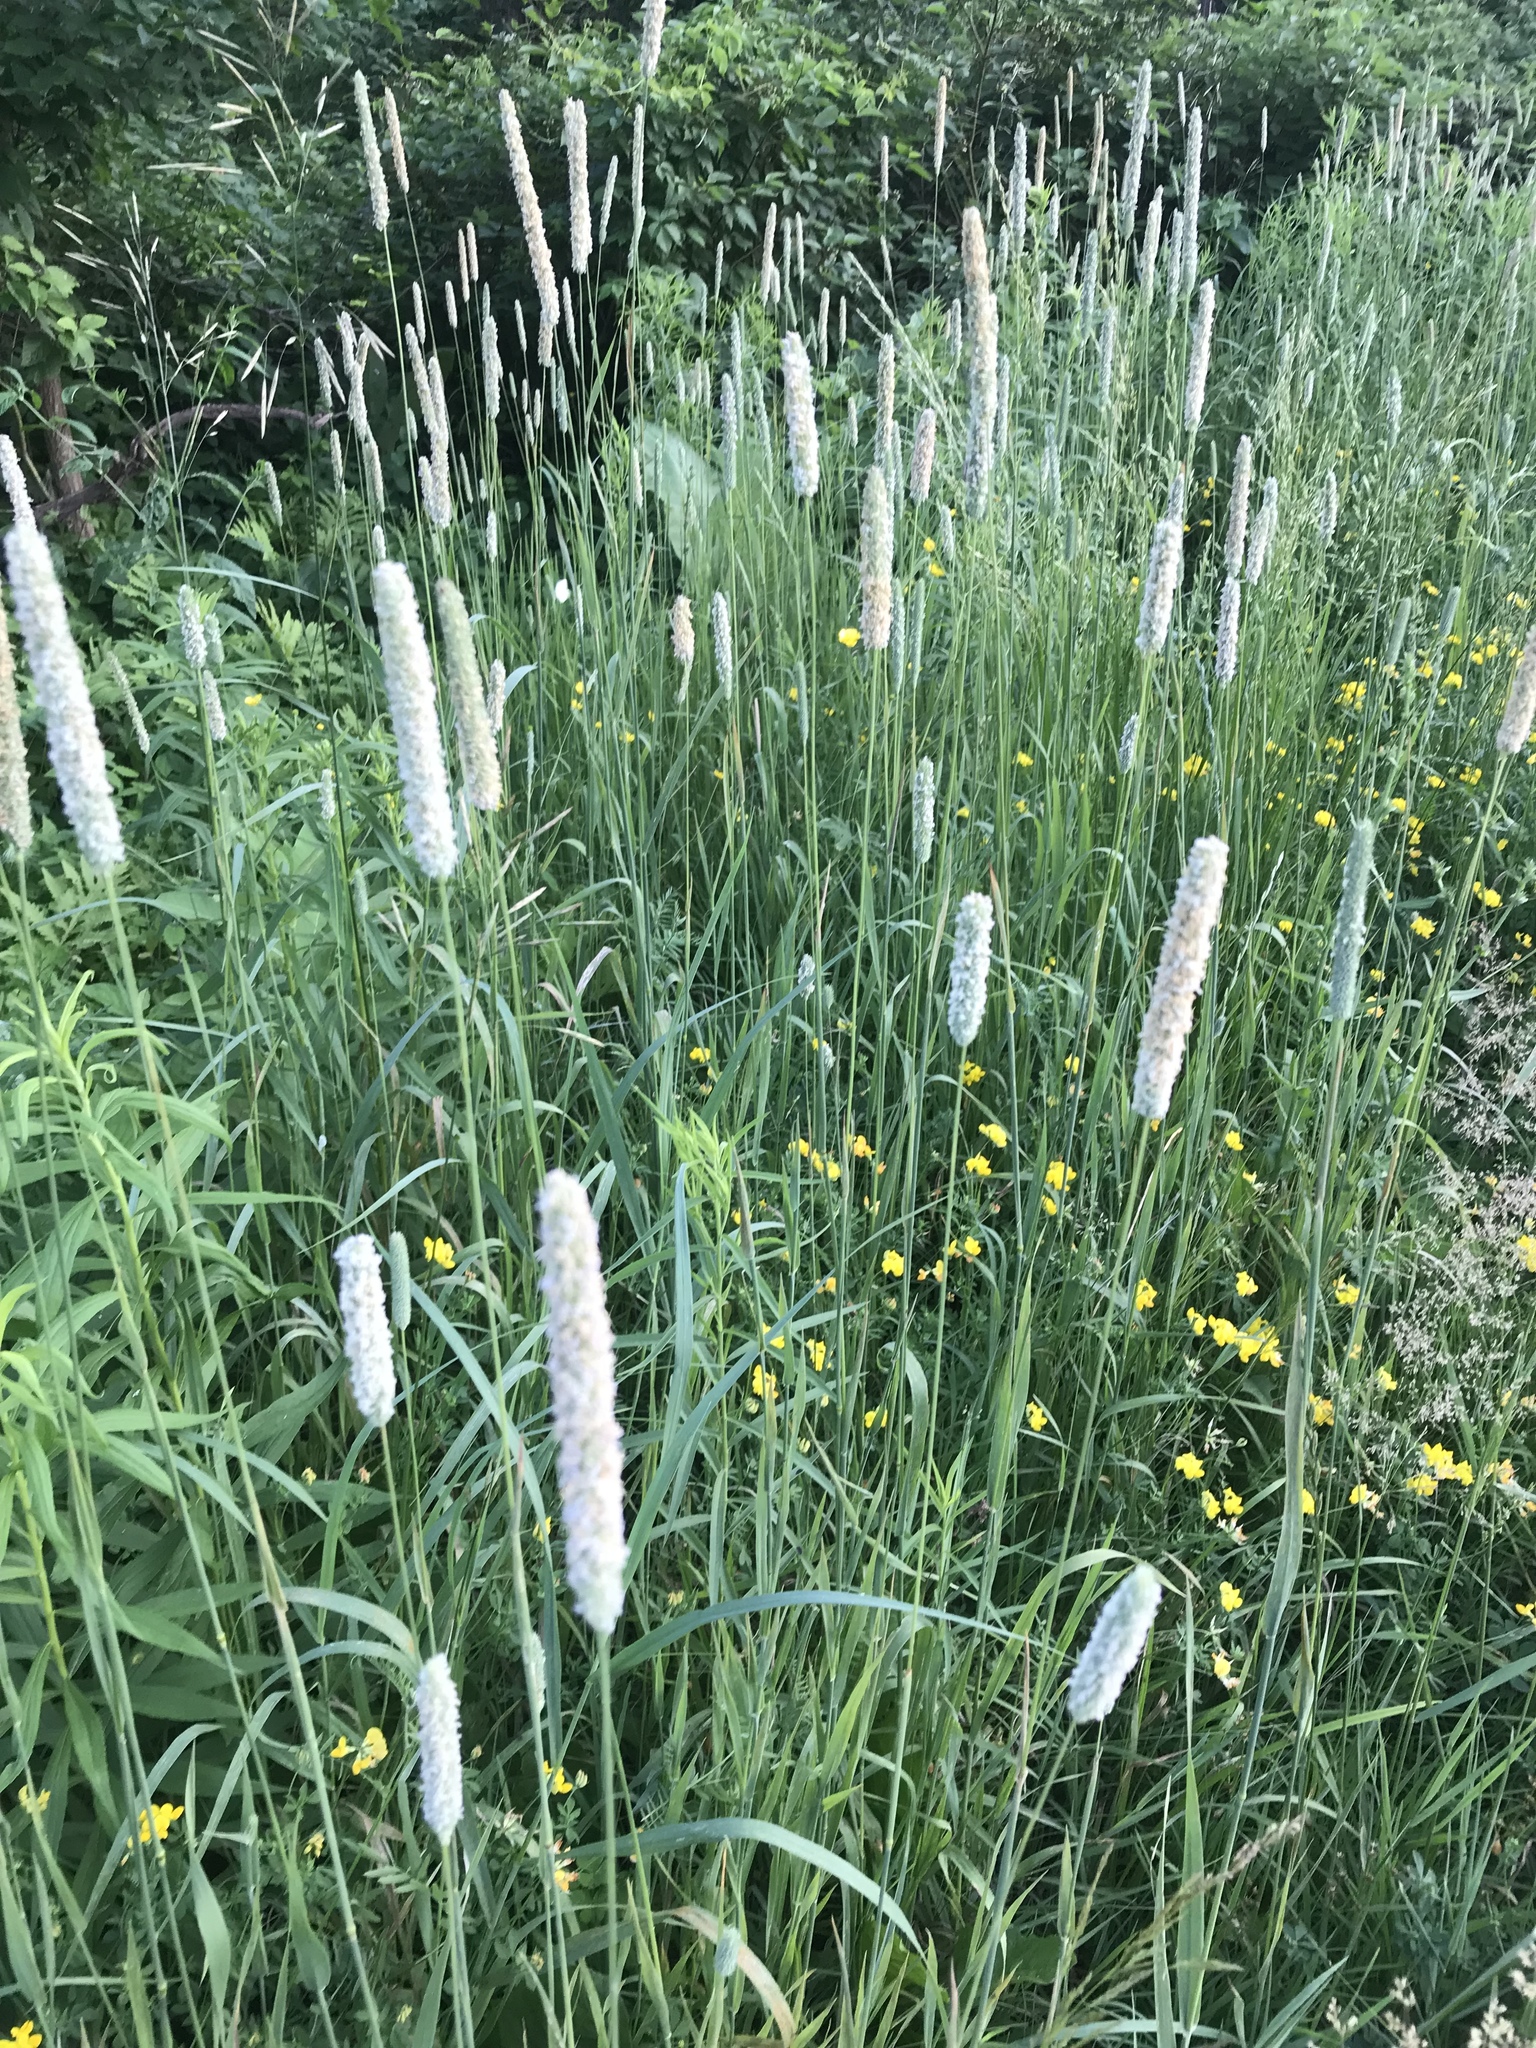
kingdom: Plantae
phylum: Tracheophyta
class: Liliopsida
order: Poales
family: Poaceae
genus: Phleum
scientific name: Phleum pratense
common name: Timothy grass
